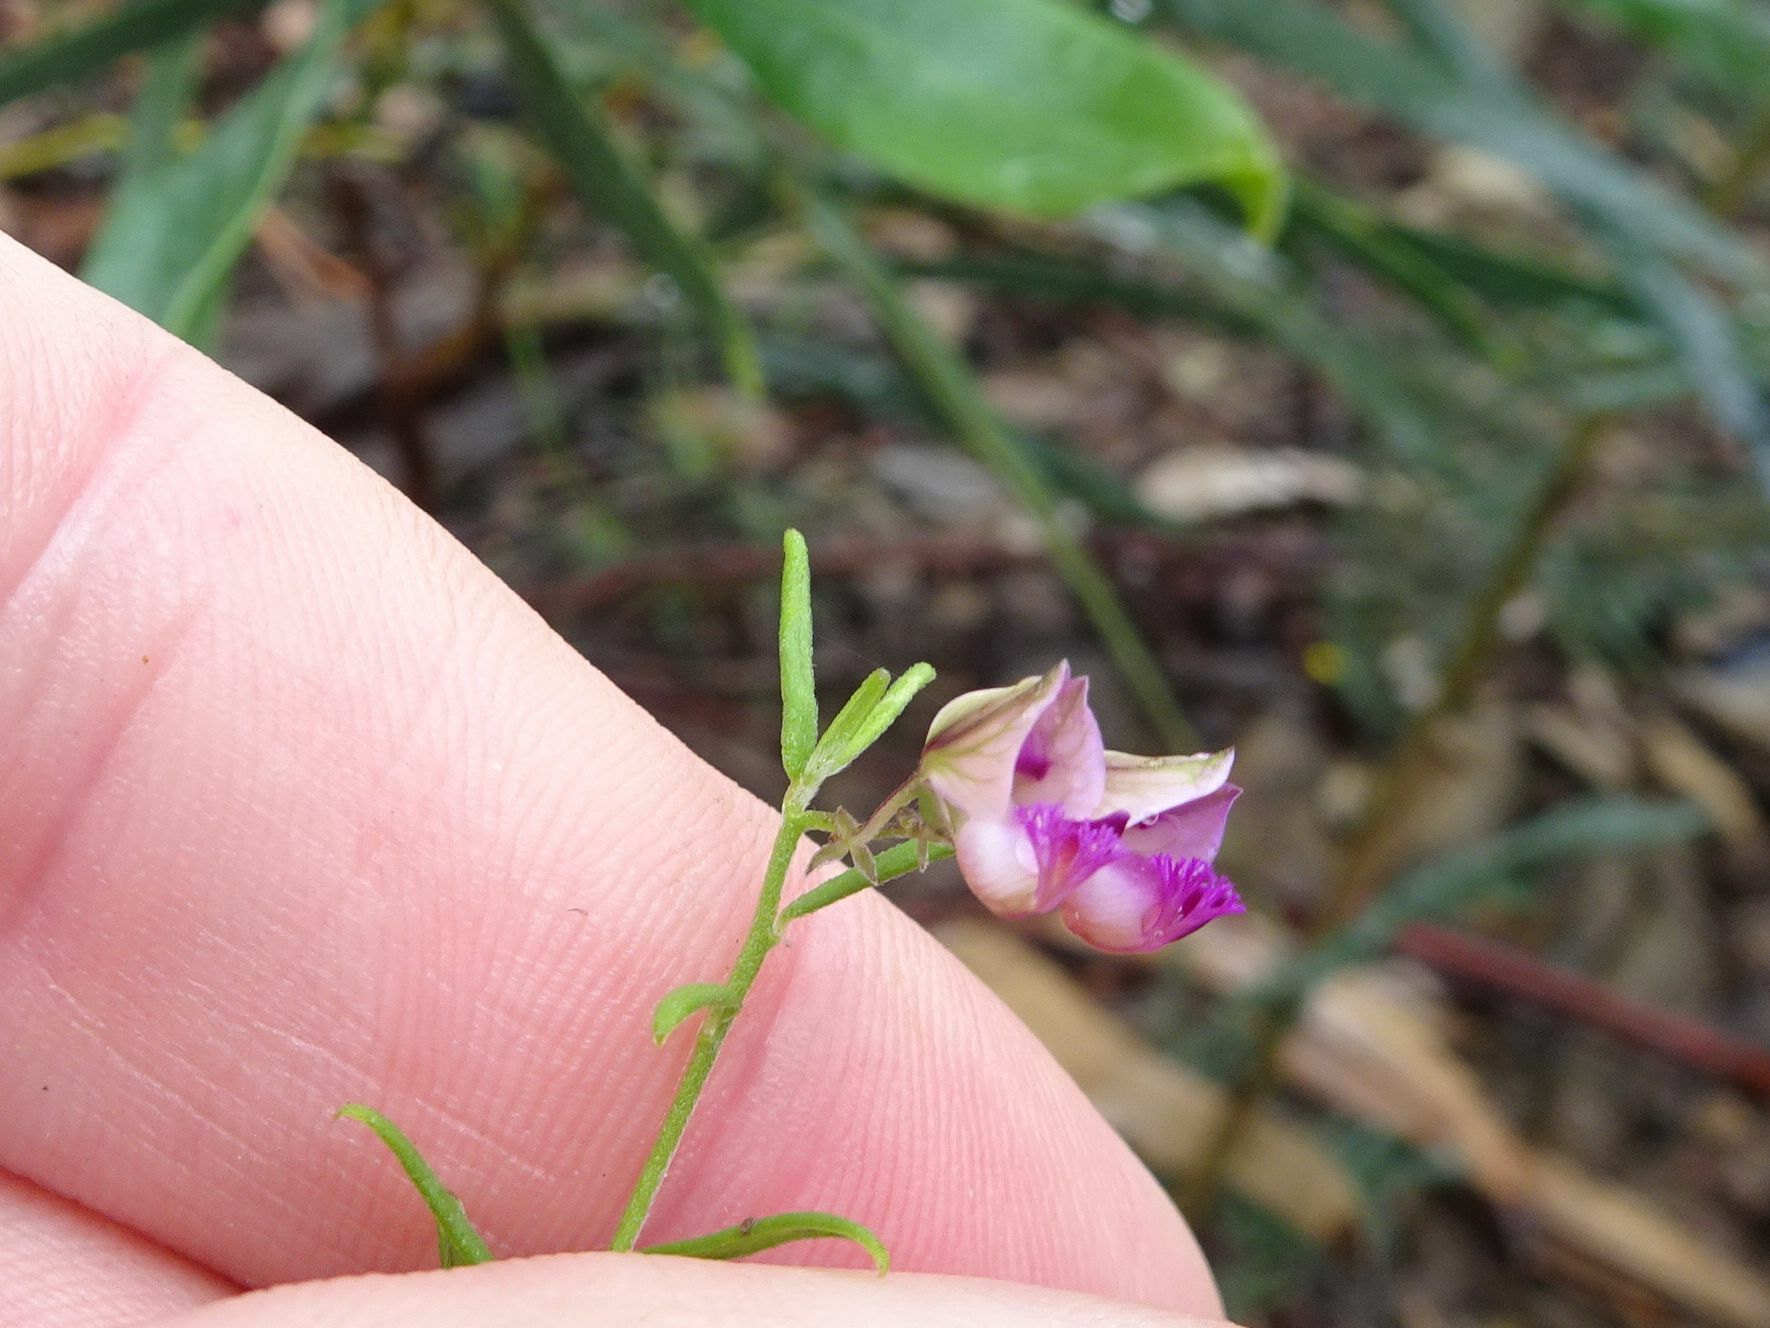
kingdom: Plantae
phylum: Tracheophyta
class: Magnoliopsida
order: Fabales
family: Polygalaceae
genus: Polygala
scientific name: Polygala scabra
